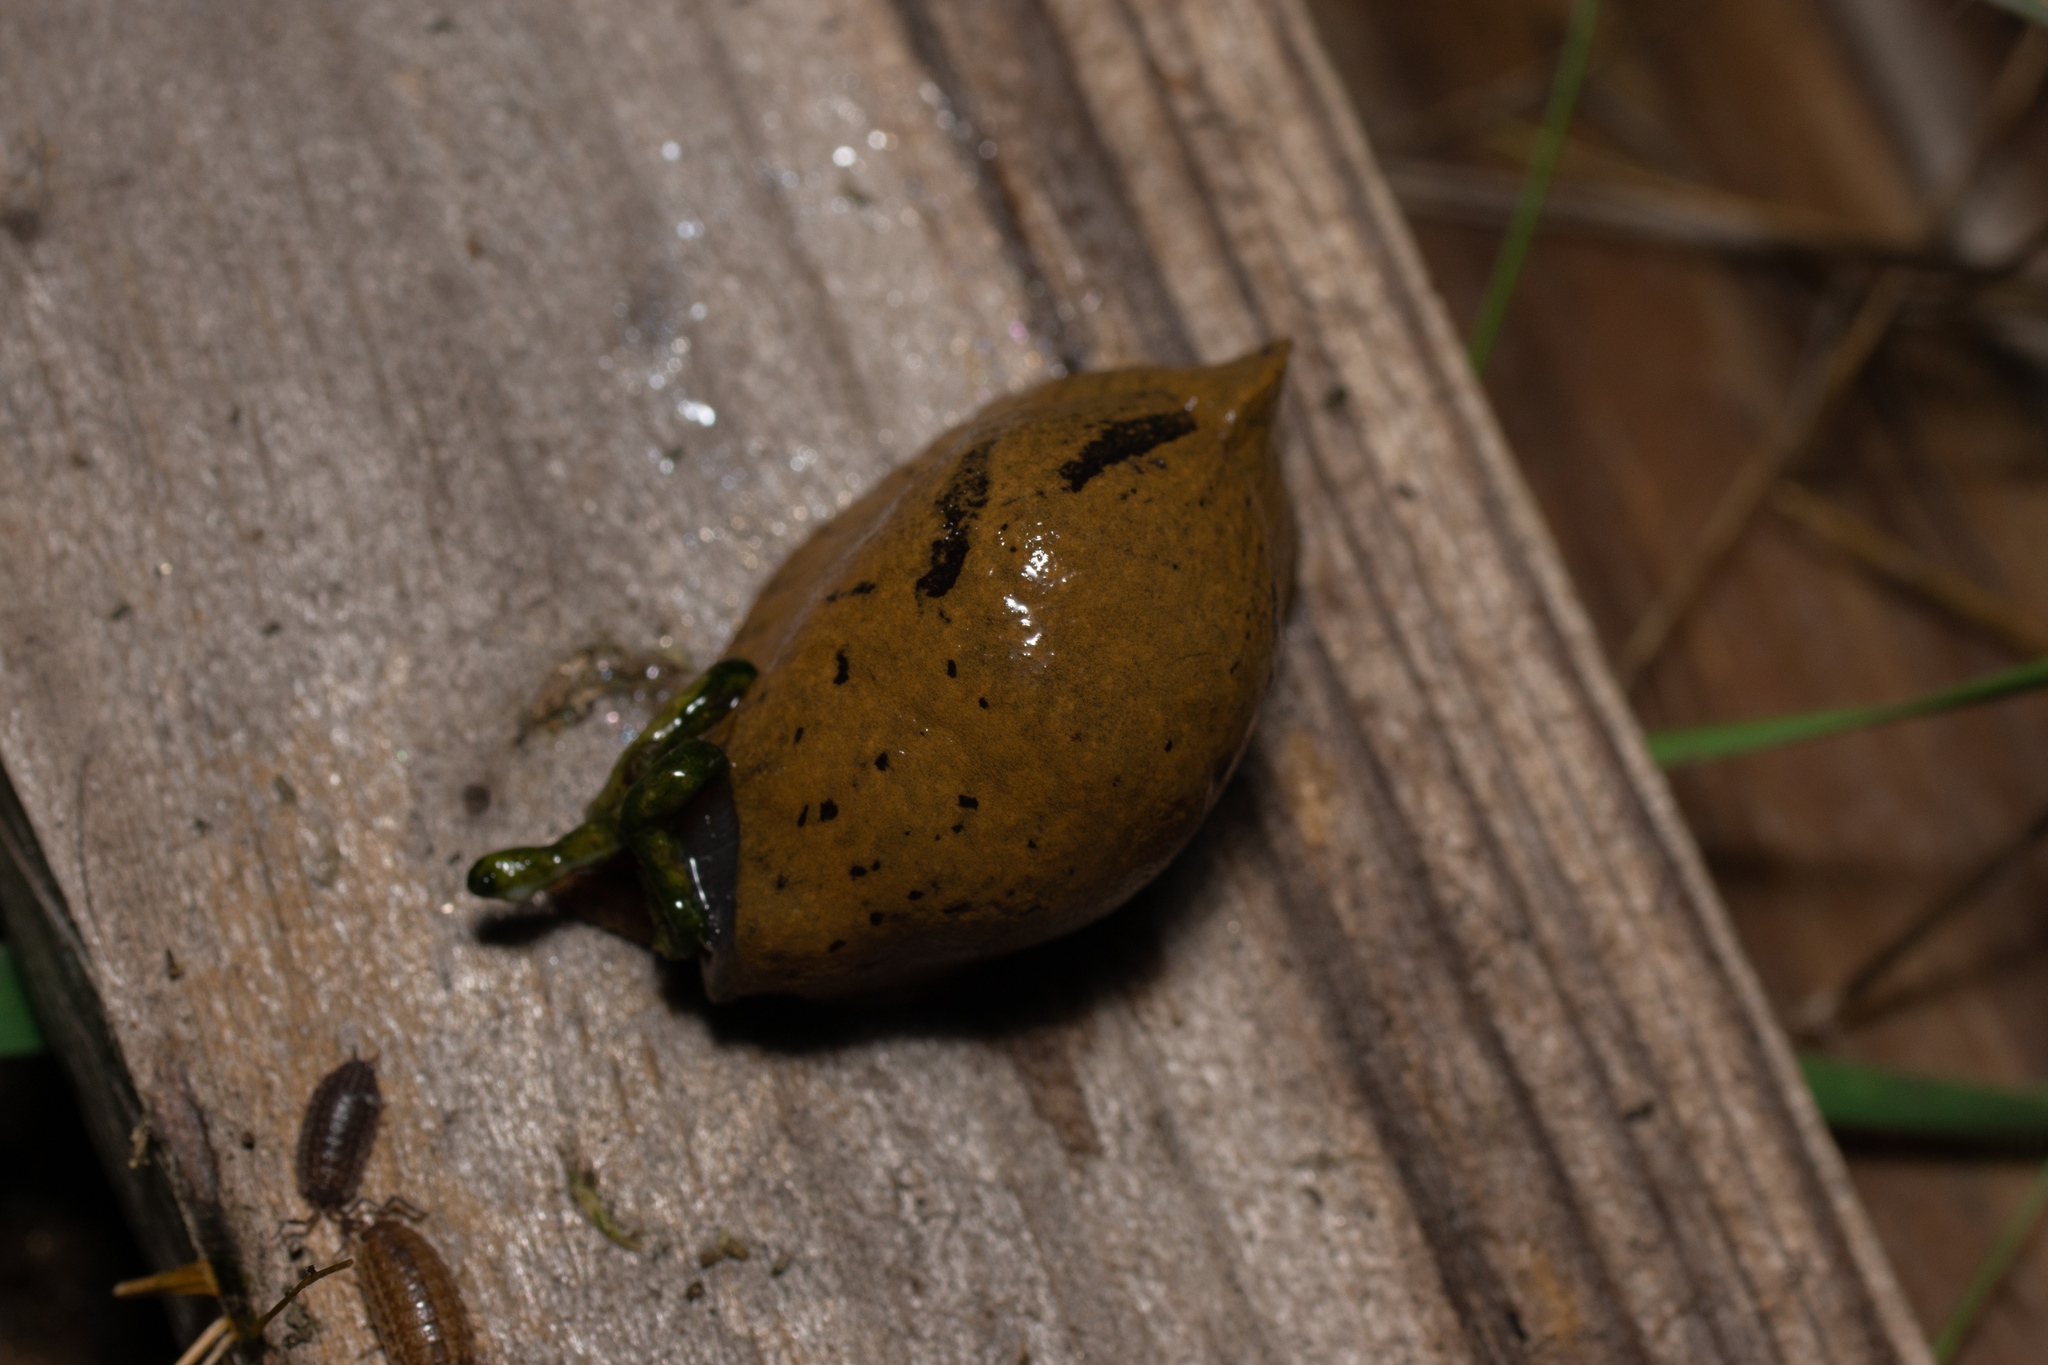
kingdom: Animalia
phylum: Mollusca
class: Gastropoda
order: Stylommatophora
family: Parmacellidae
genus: Drusia
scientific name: Drusia valenciennii
